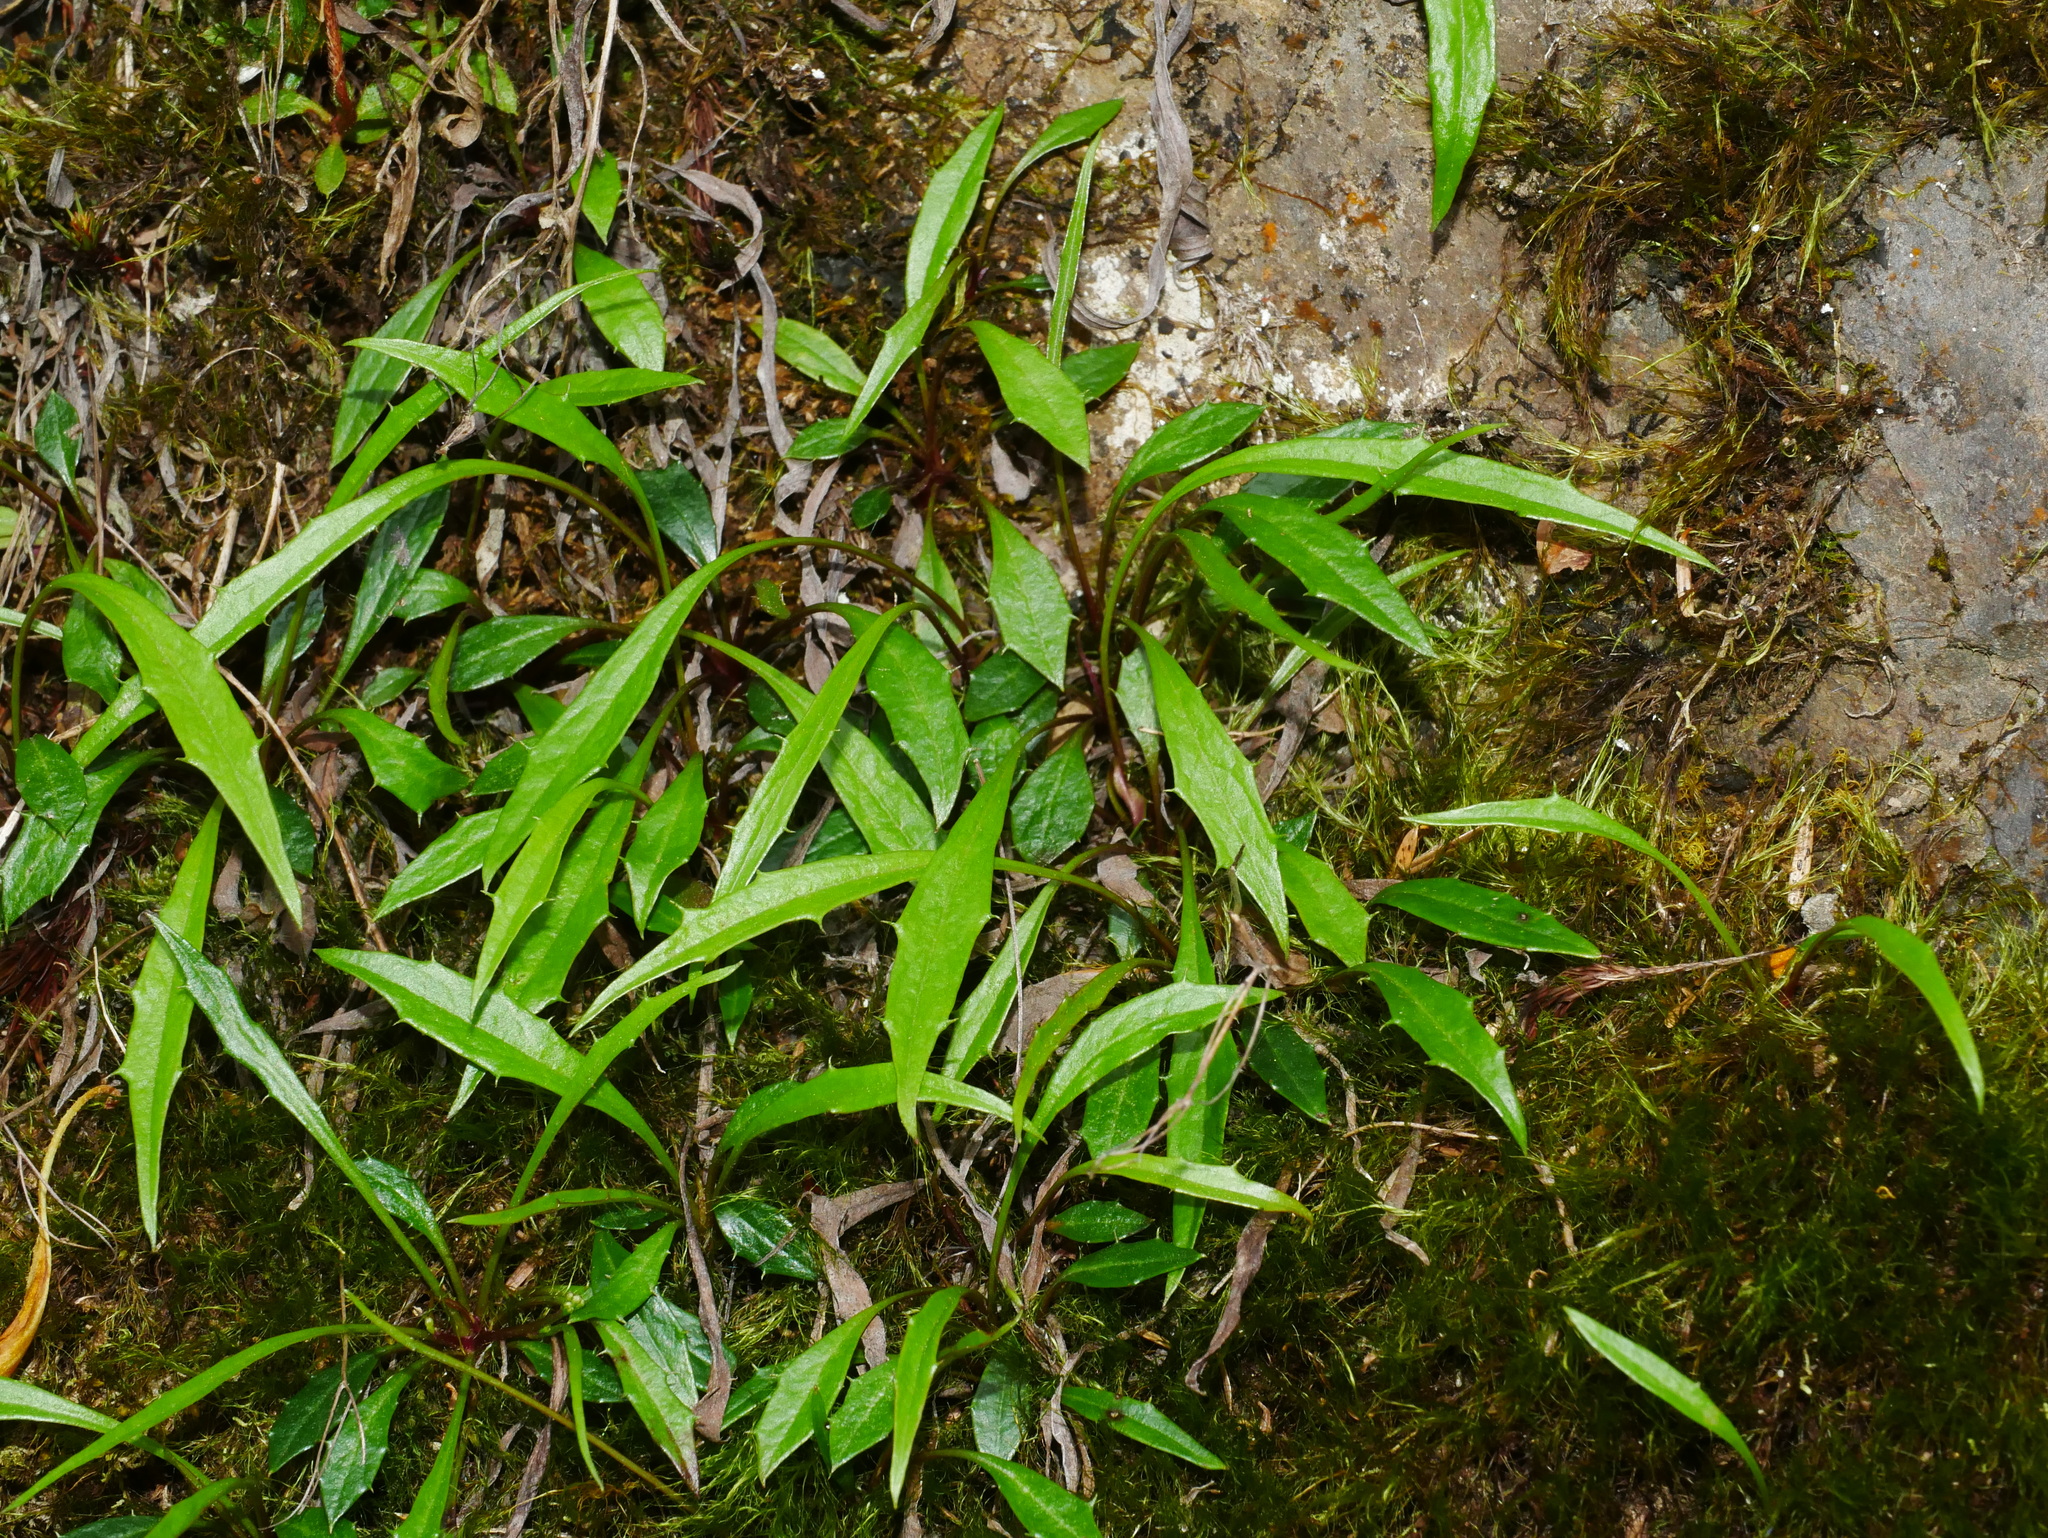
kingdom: Plantae
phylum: Tracheophyta
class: Magnoliopsida
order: Asterales
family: Asteraceae
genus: Ixeridium
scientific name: Ixeridium transnokoense
